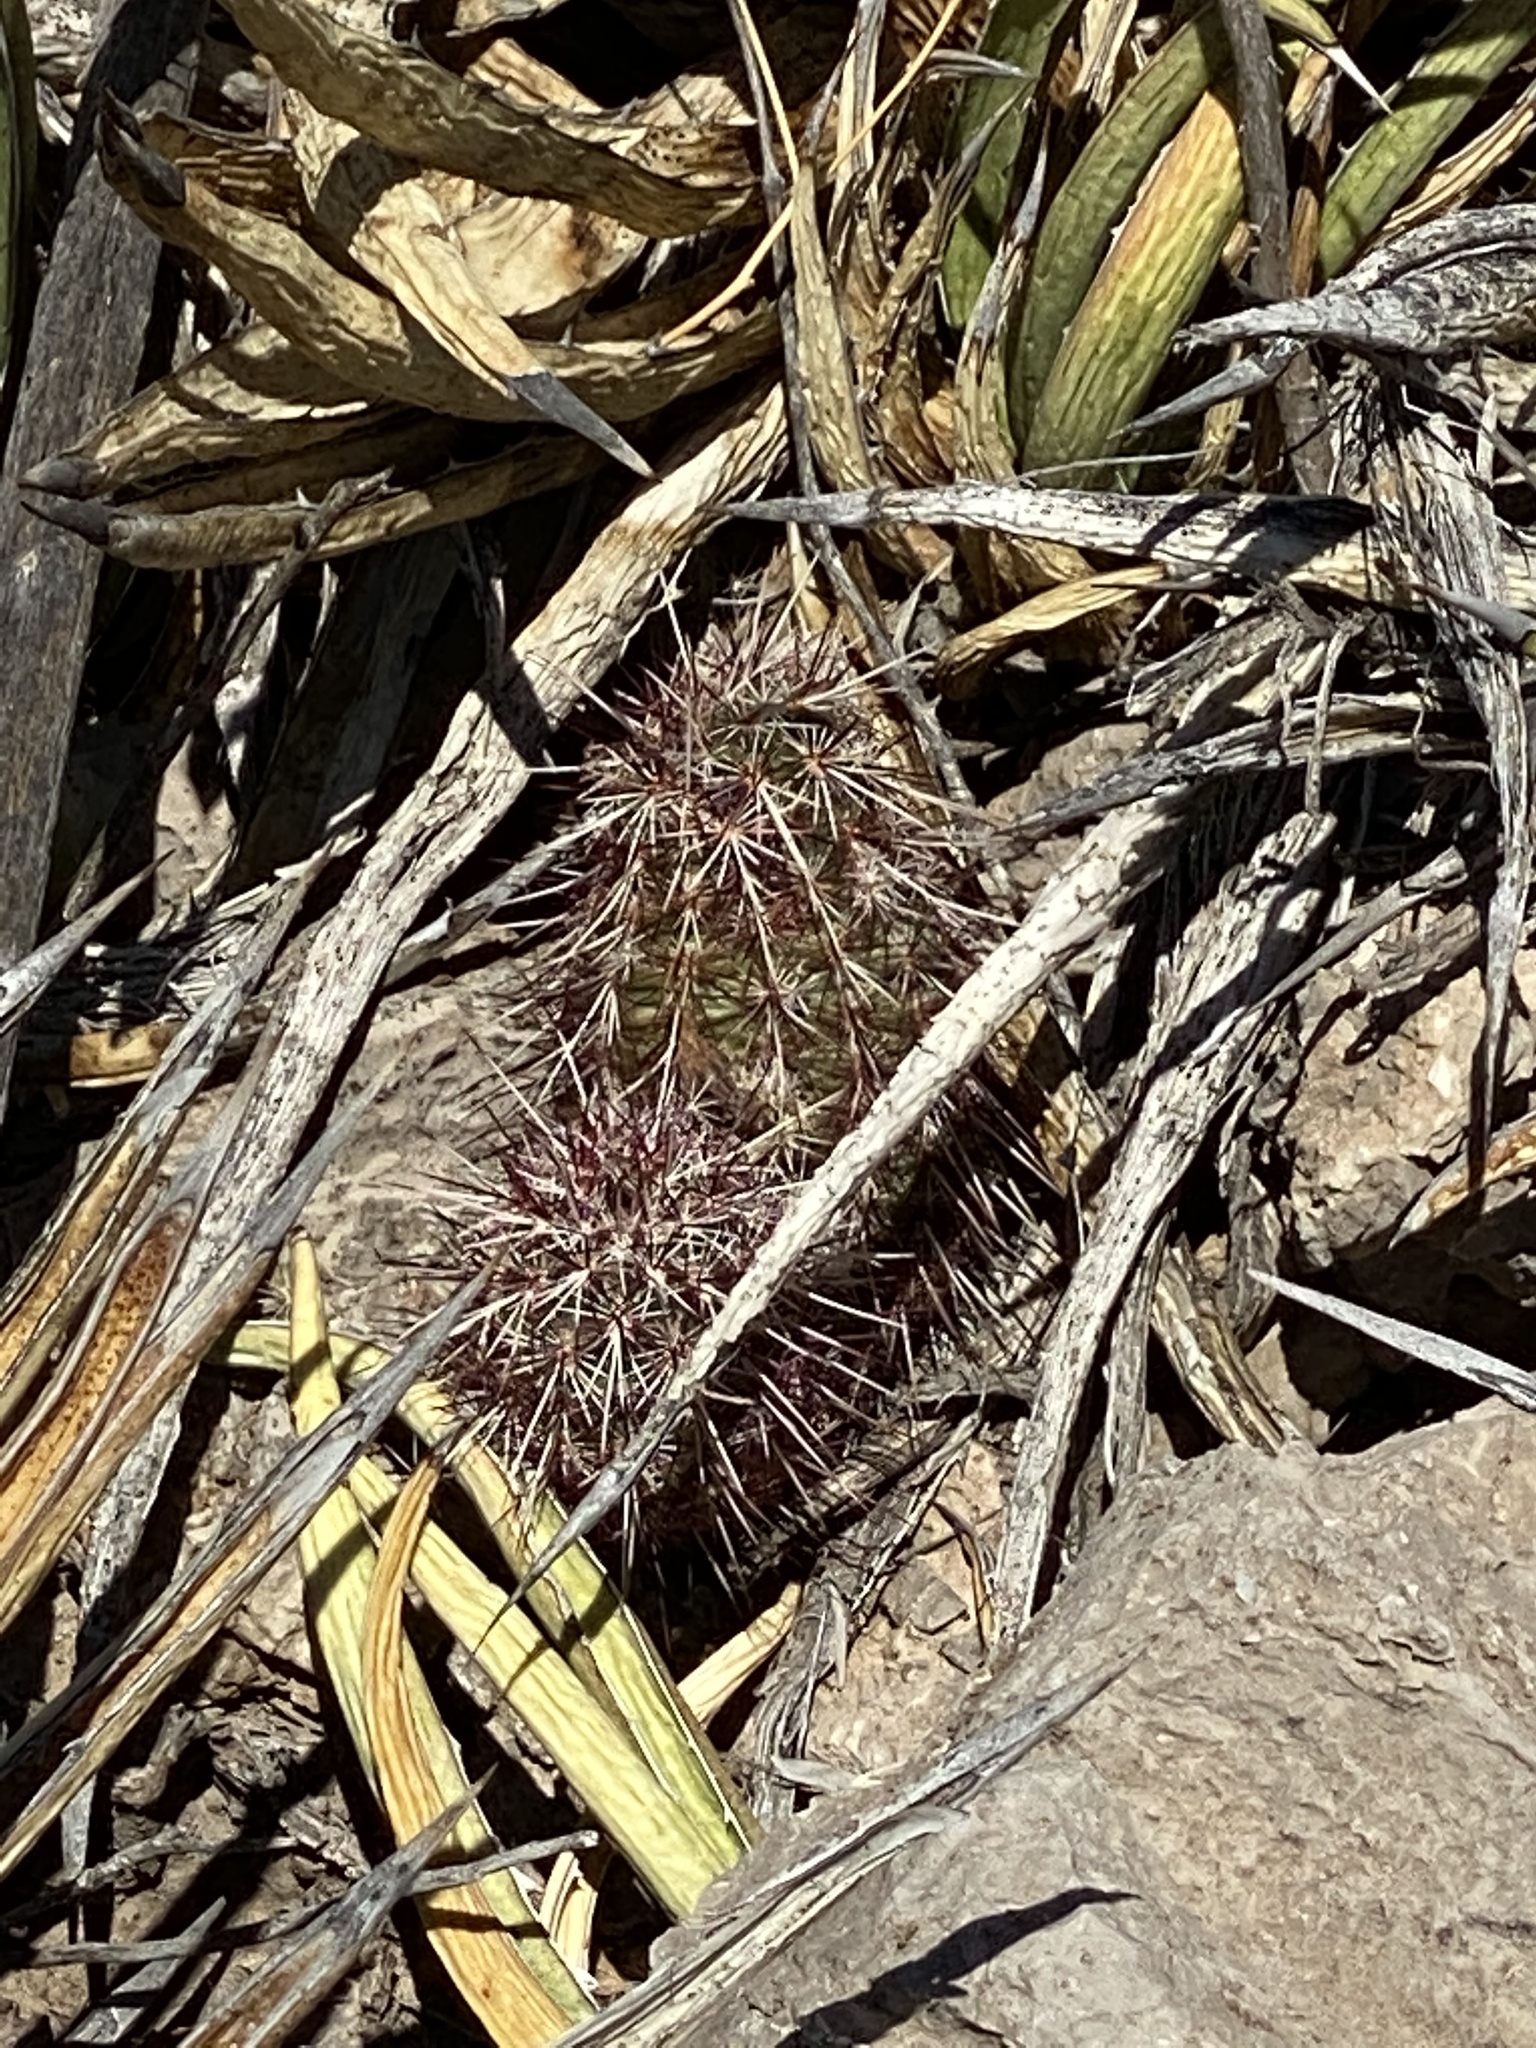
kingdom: Plantae
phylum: Tracheophyta
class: Magnoliopsida
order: Caryophyllales
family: Cactaceae
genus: Echinocereus
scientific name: Echinocereus viridiflorus
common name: Nylon hedgehog cactus
